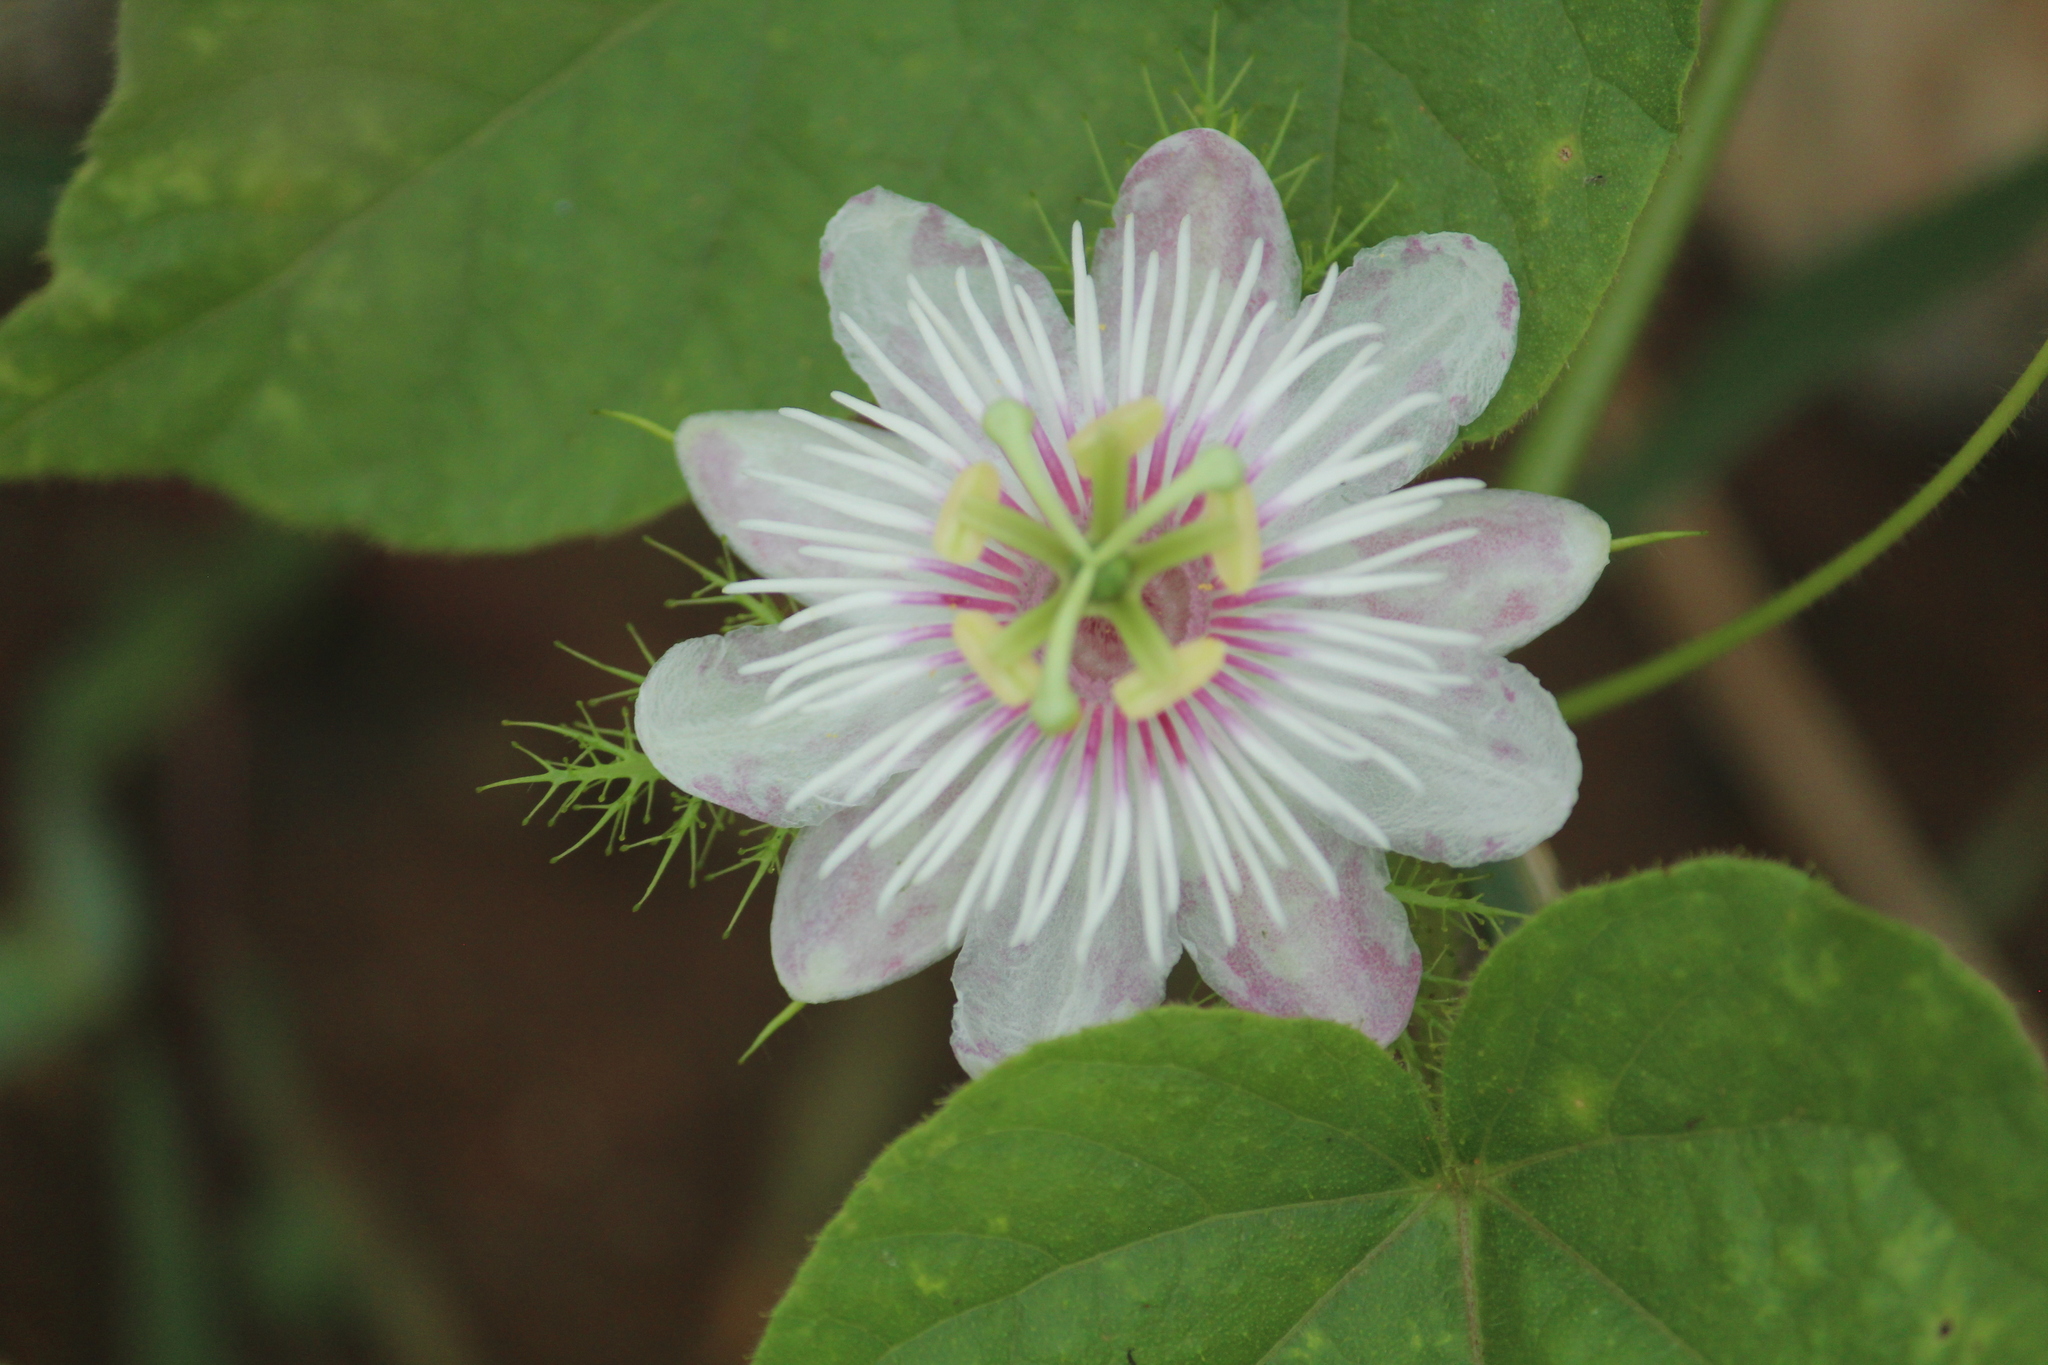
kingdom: Plantae
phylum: Tracheophyta
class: Magnoliopsida
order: Malpighiales
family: Passifloraceae
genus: Passiflora
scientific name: Passiflora foetida
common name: Fetid passionflower
